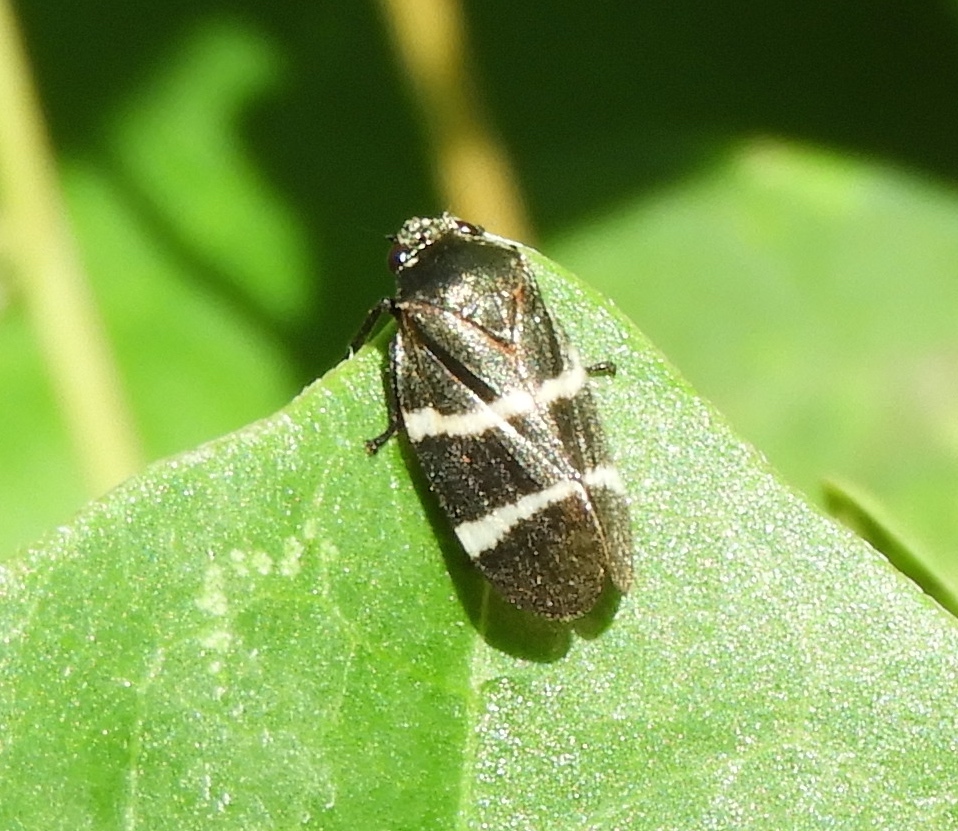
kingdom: Animalia
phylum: Arthropoda
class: Insecta
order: Hemiptera
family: Cercopidae
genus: Aeneolamia
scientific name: Aeneolamia albofasciata
